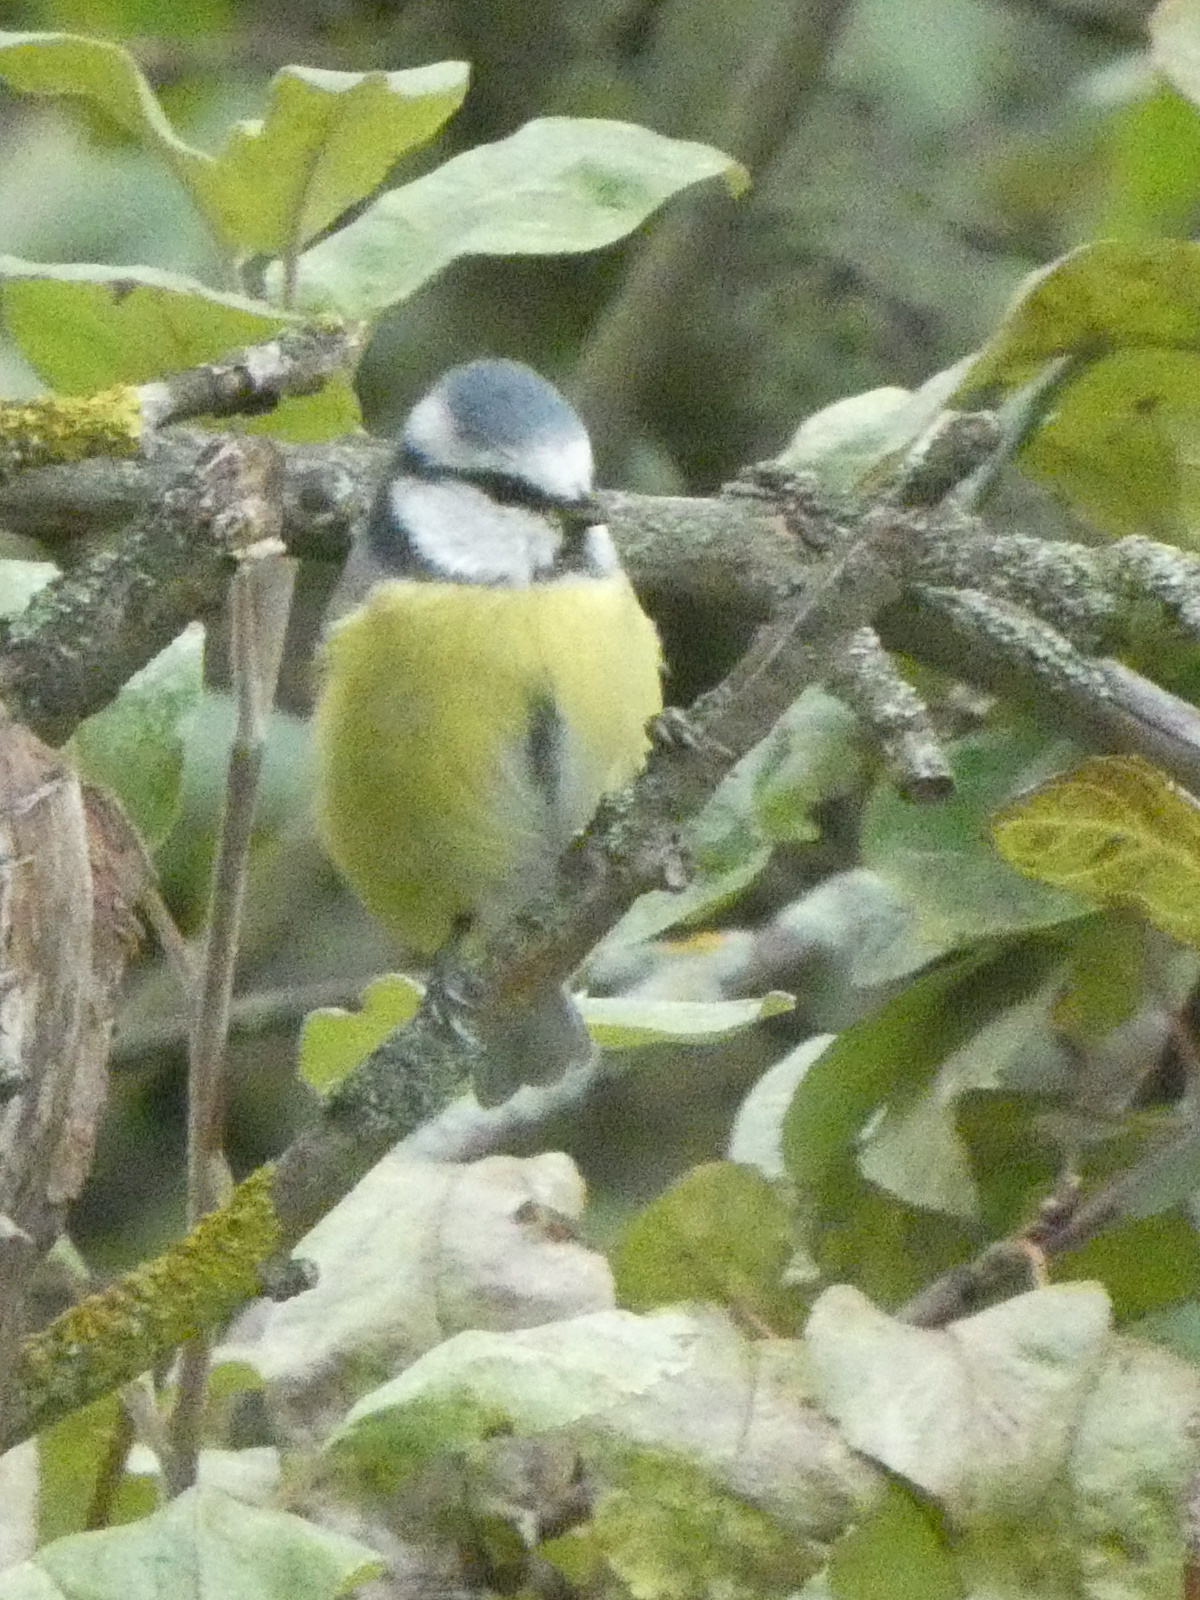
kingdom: Animalia
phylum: Chordata
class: Aves
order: Passeriformes
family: Paridae
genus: Cyanistes
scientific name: Cyanistes caeruleus
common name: Eurasian blue tit
